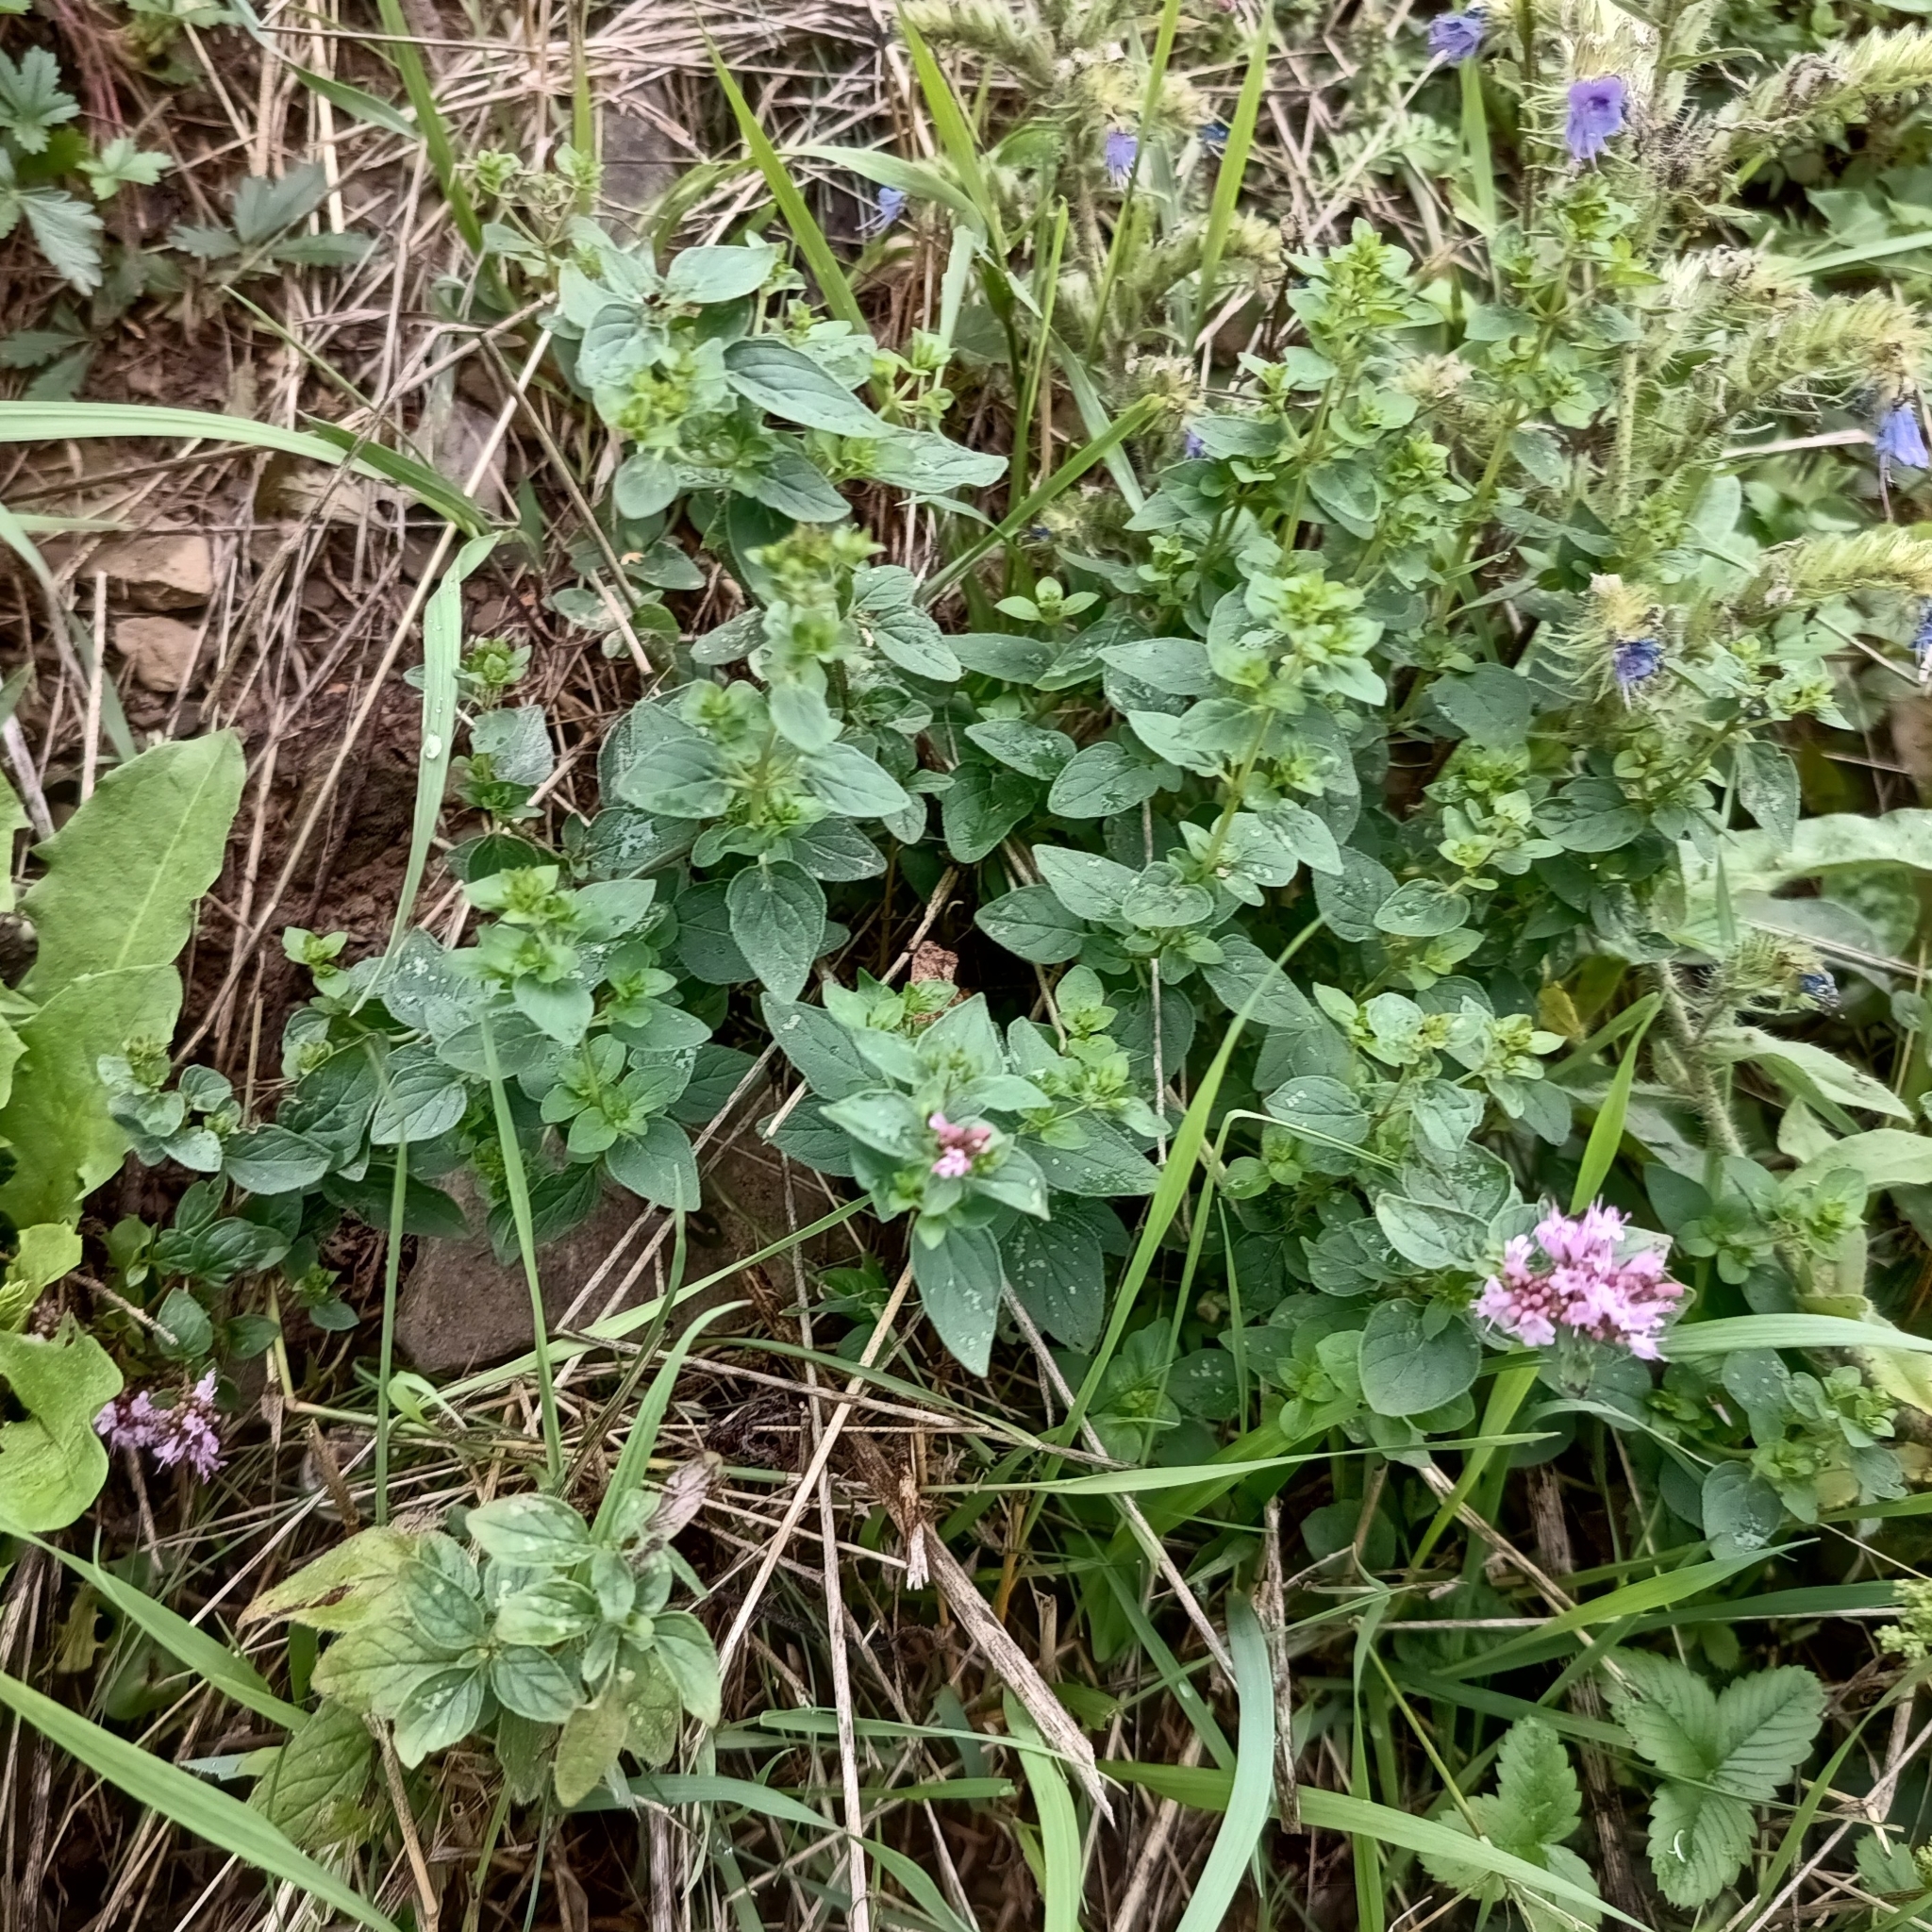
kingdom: Plantae
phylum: Tracheophyta
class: Magnoliopsida
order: Lamiales
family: Lamiaceae
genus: Origanum
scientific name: Origanum vulgare
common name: Wild marjoram
